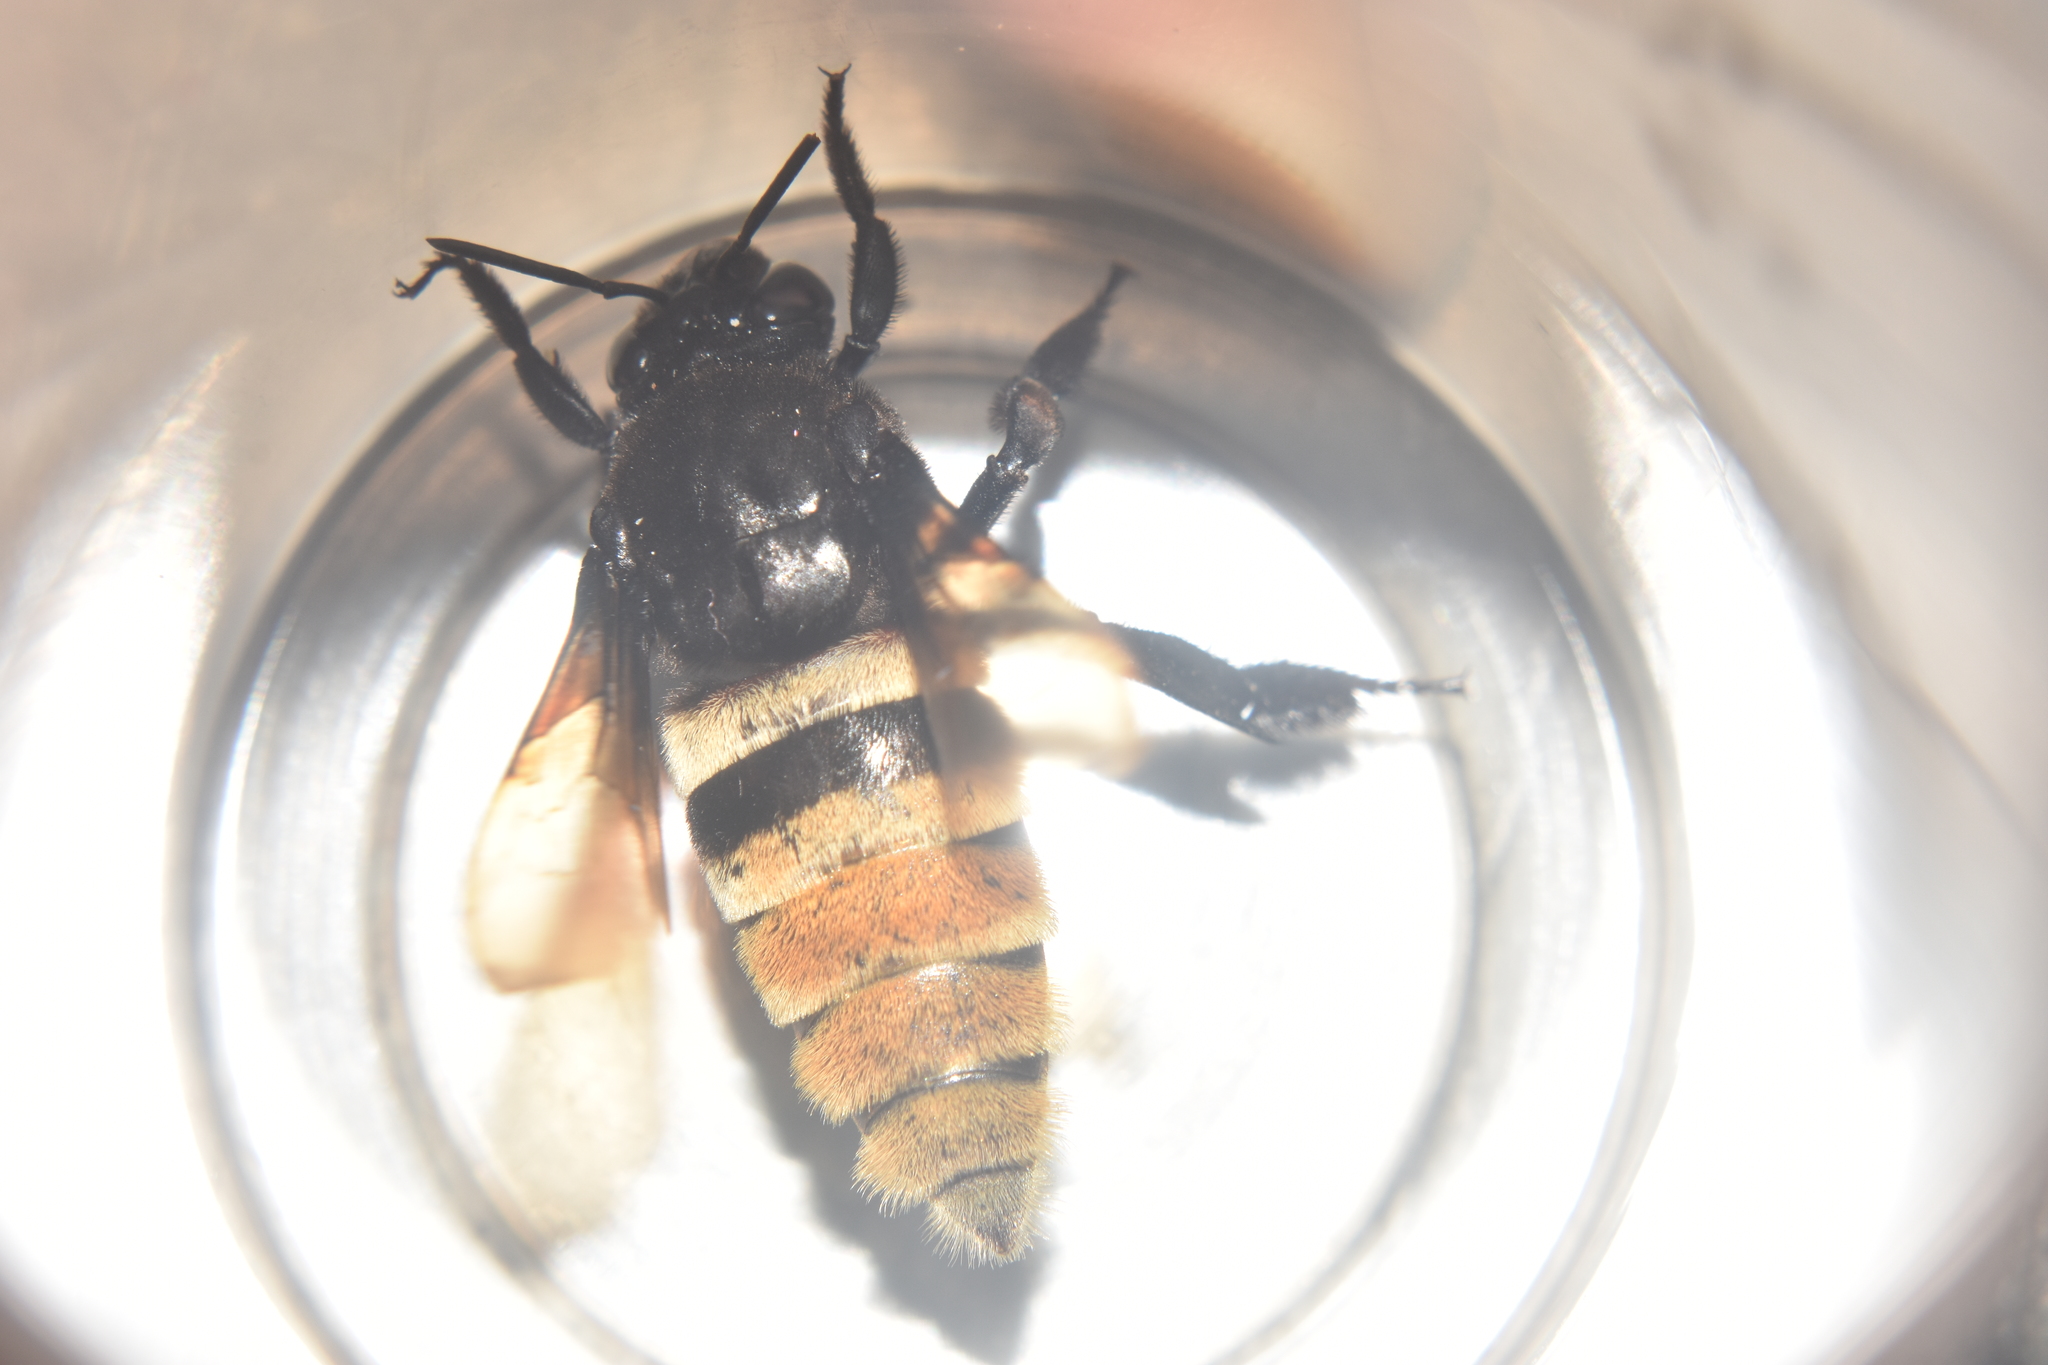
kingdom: Animalia
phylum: Arthropoda
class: Insecta
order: Hymenoptera
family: Apidae
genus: Eulaema
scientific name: Eulaema cingulata
